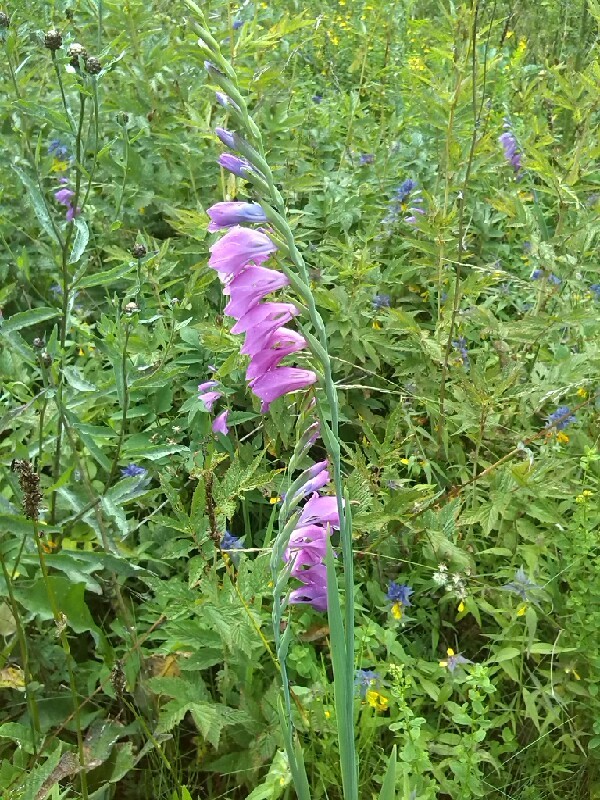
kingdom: Plantae
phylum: Tracheophyta
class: Liliopsida
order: Asparagales
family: Iridaceae
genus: Gladiolus
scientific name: Gladiolus imbricatus
